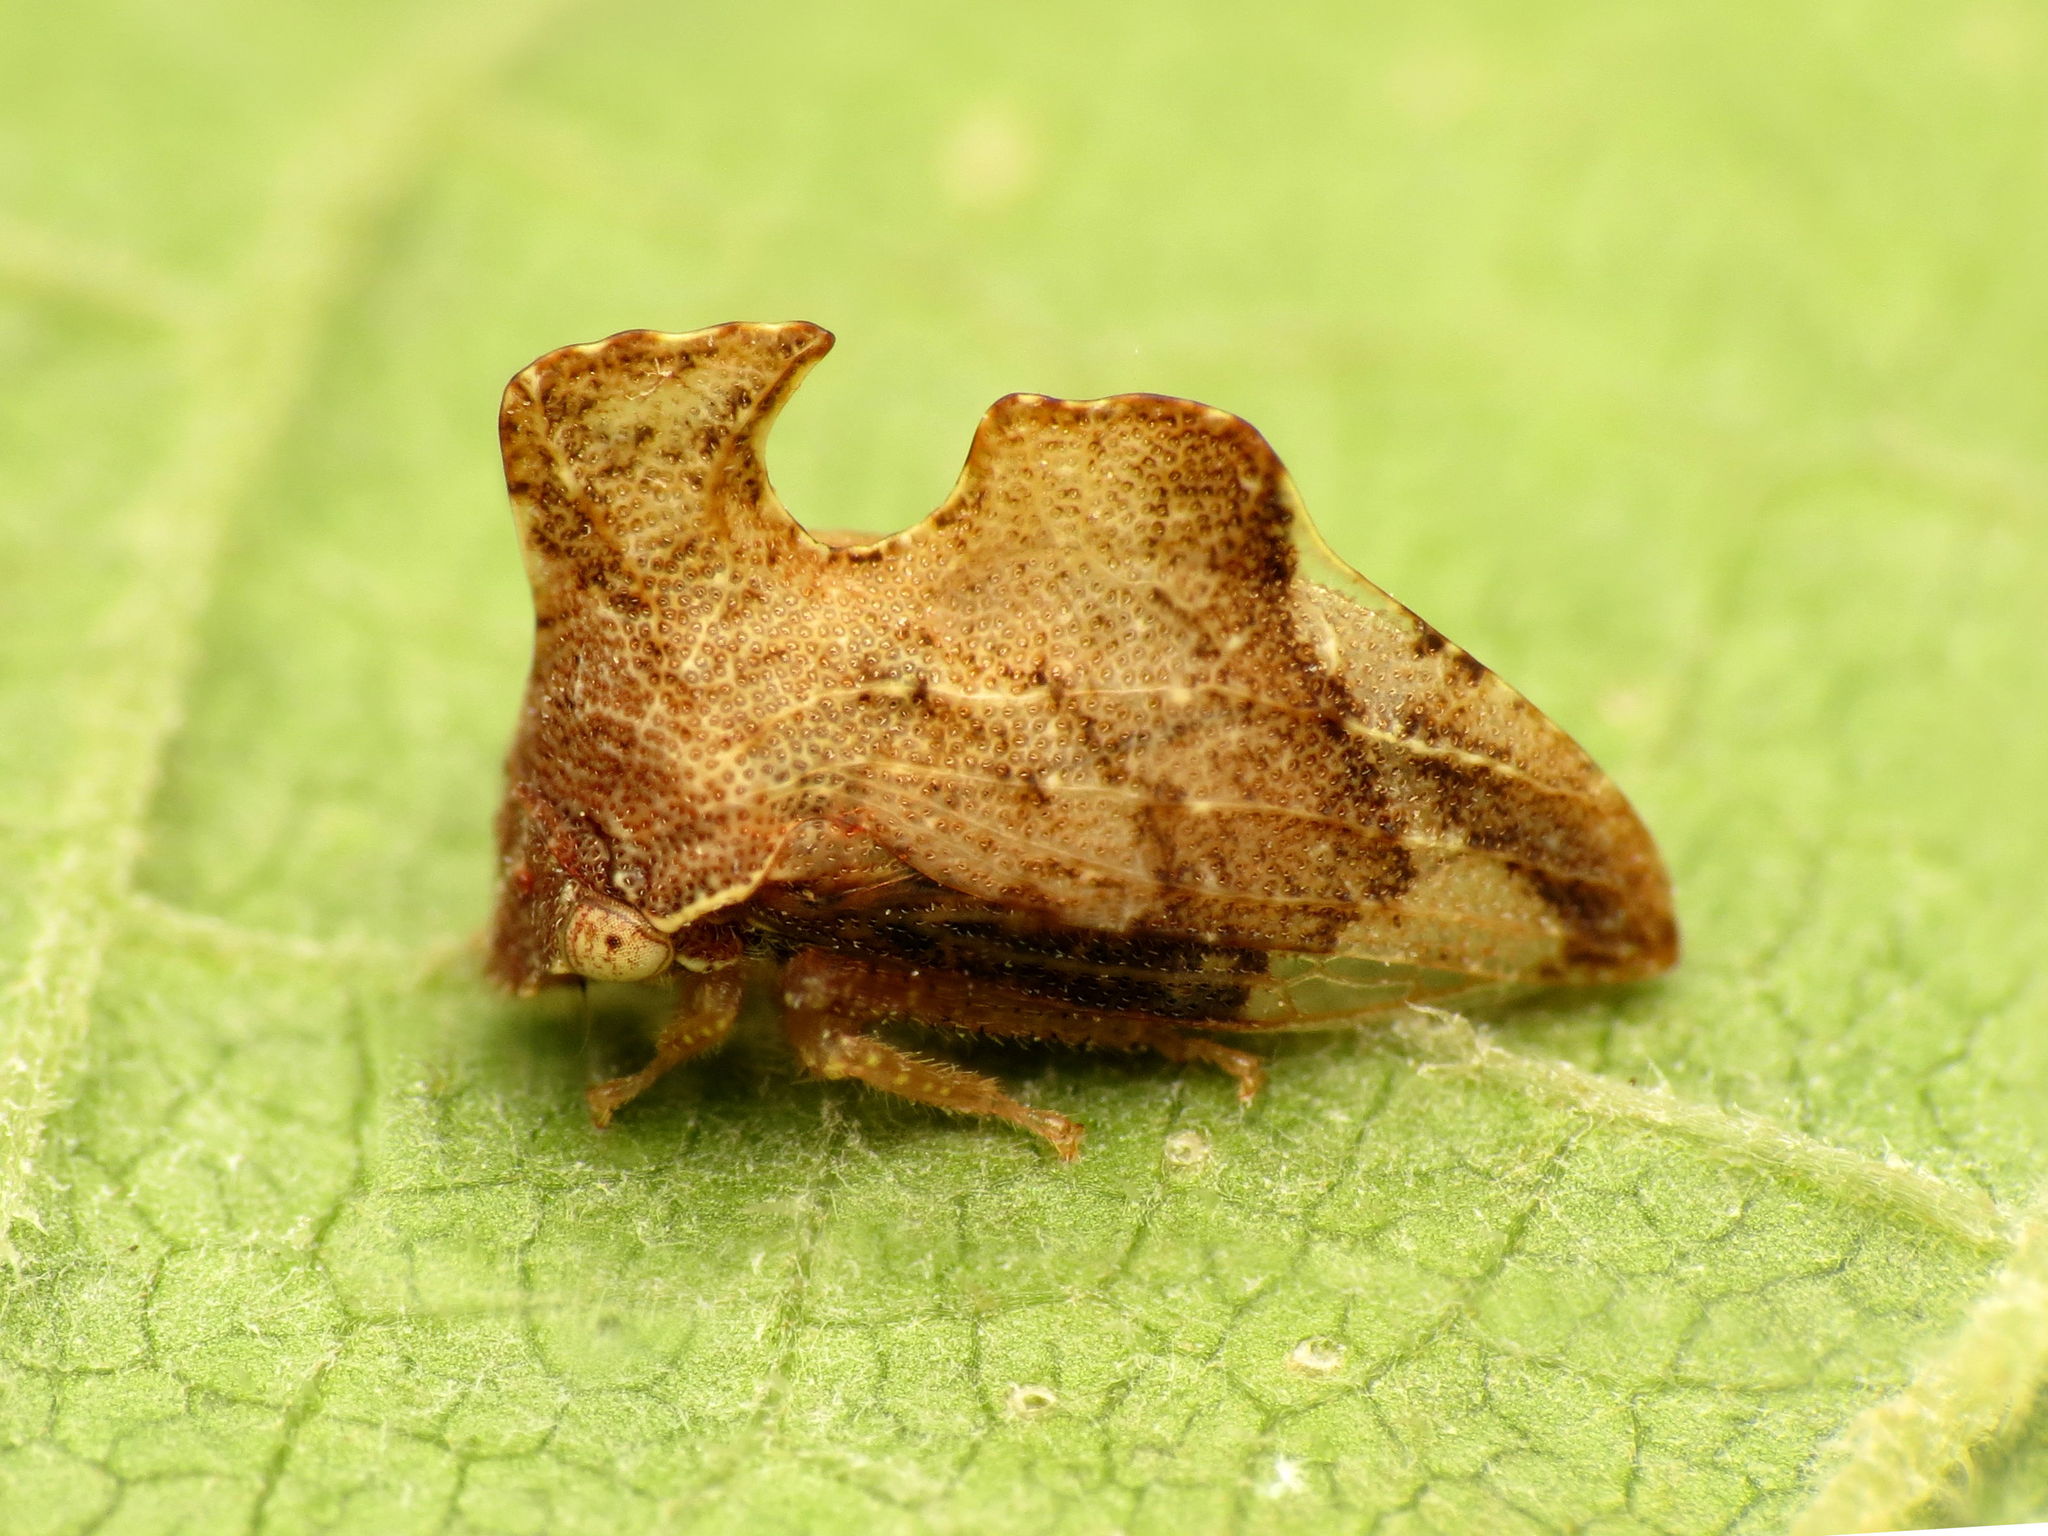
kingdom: Animalia
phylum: Arthropoda
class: Insecta
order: Hemiptera
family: Membracidae
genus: Entylia
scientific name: Entylia carinata
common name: Keeled treehopper
